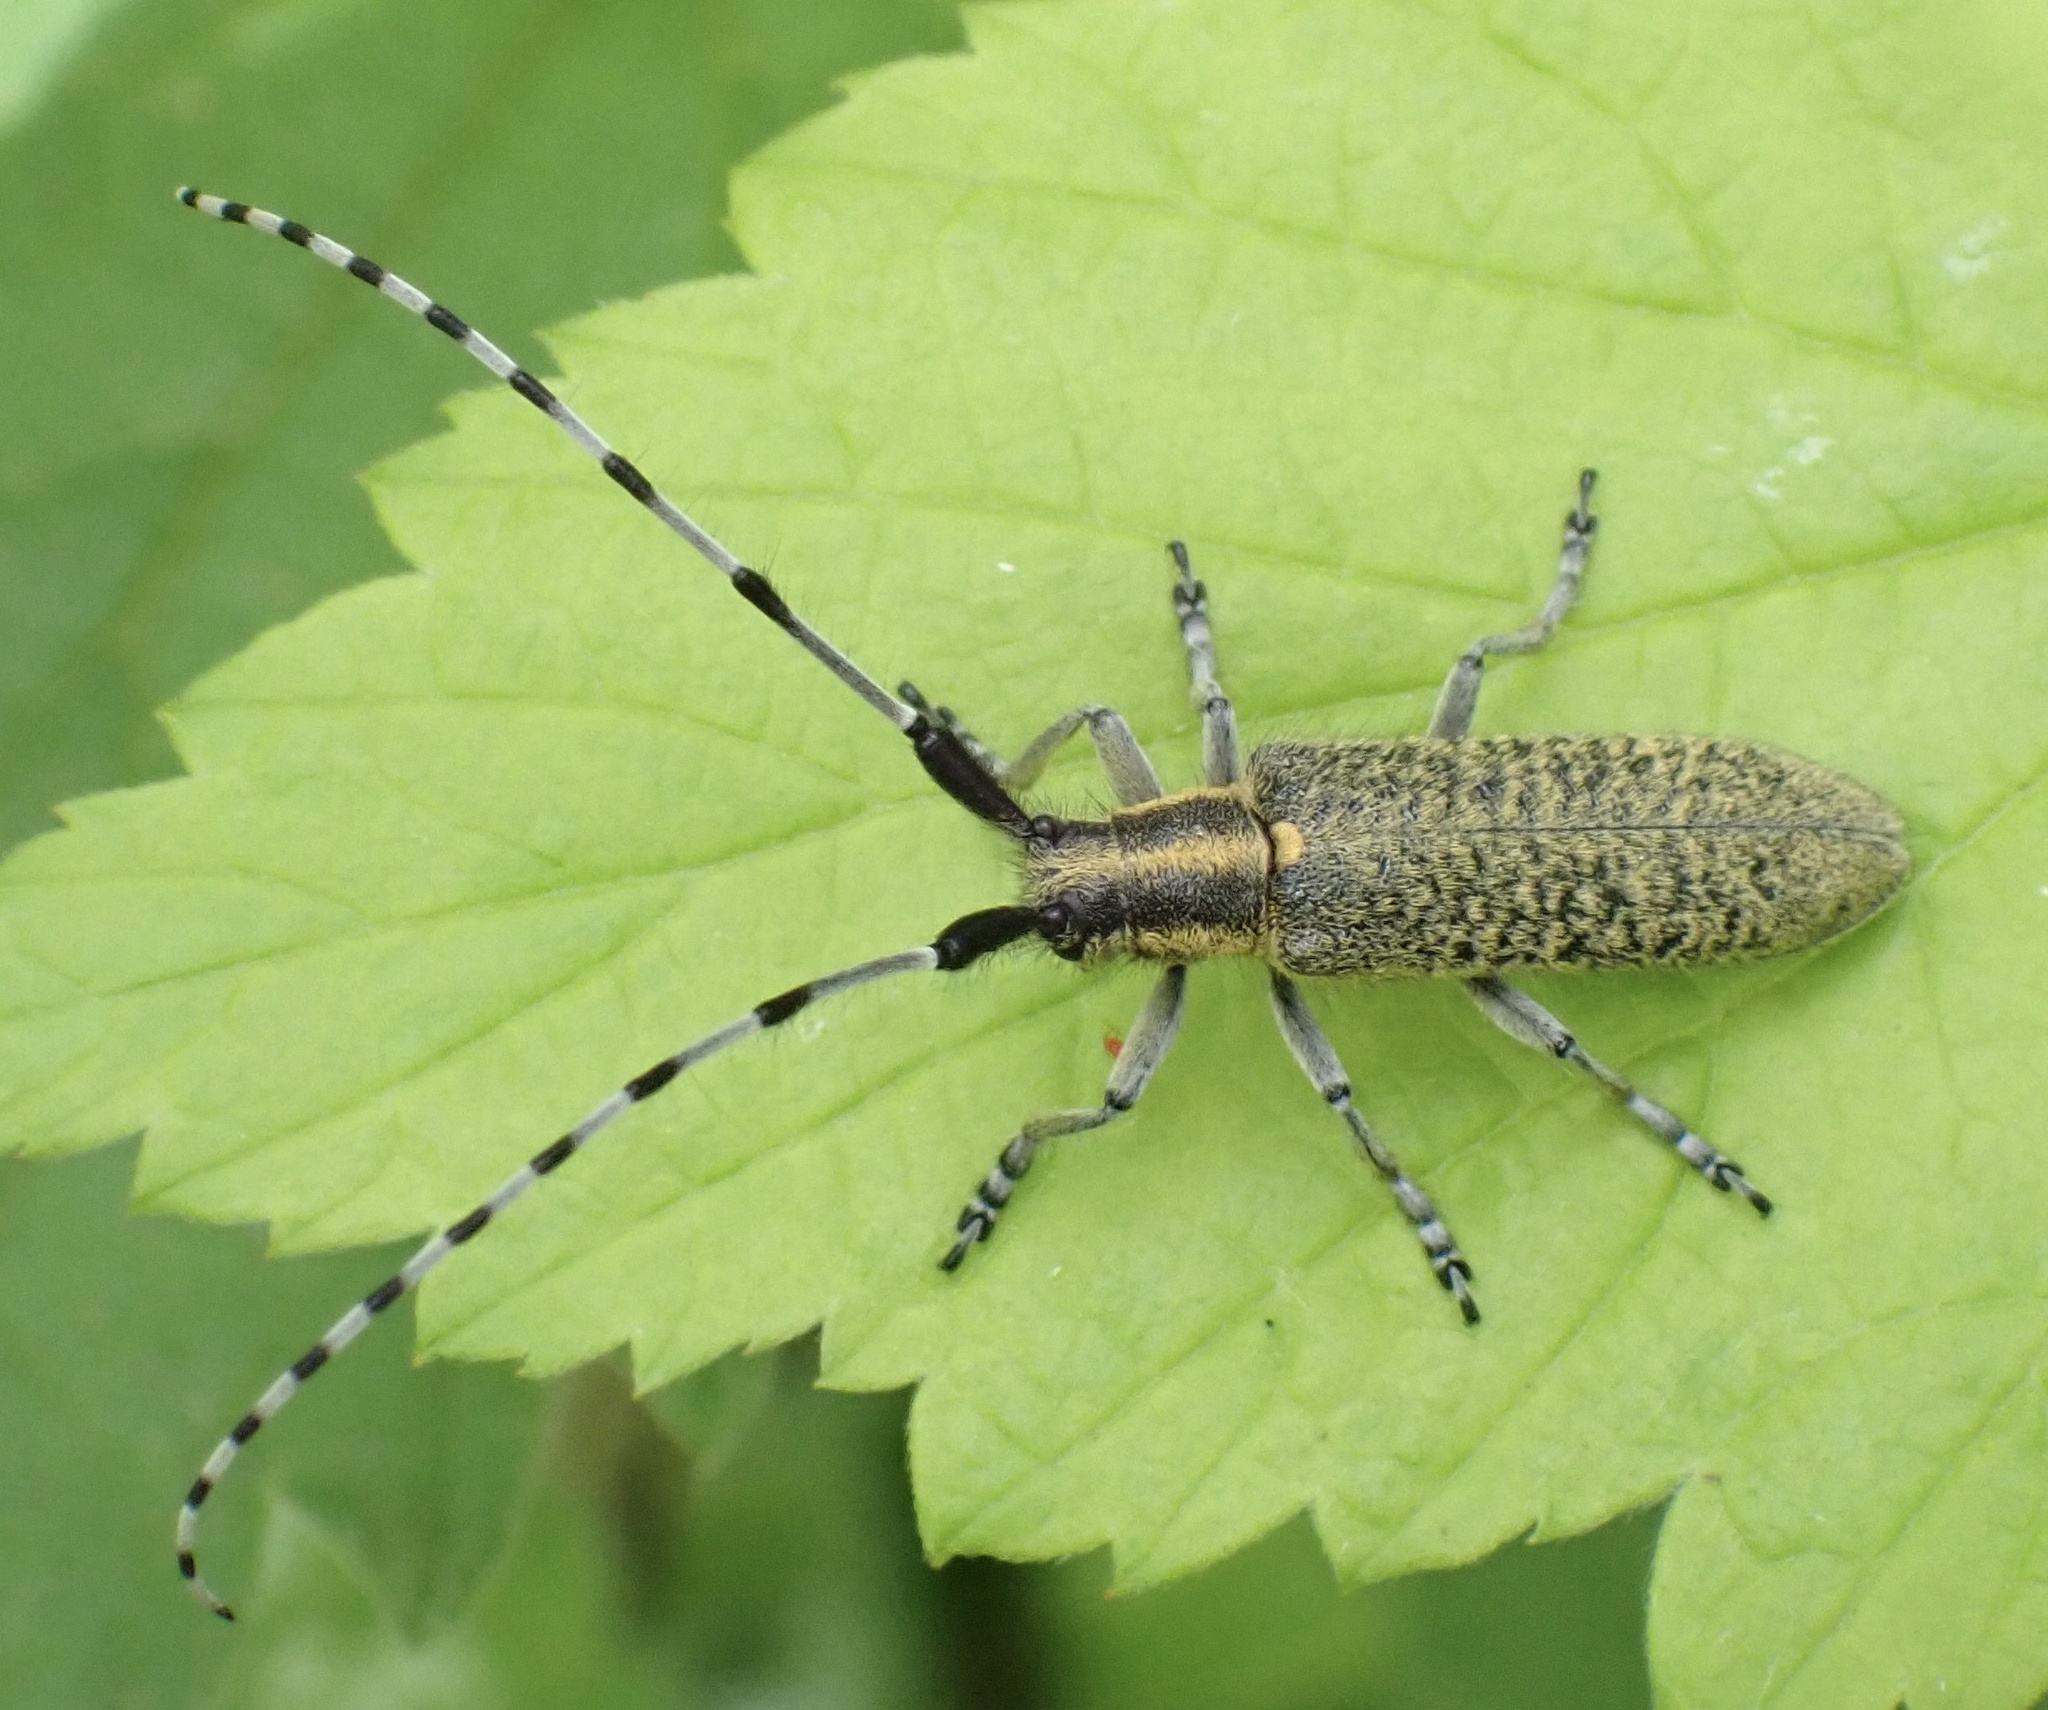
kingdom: Animalia
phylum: Arthropoda
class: Insecta
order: Coleoptera
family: Cerambycidae
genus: Agapanthia
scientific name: Agapanthia villosoviridescens
